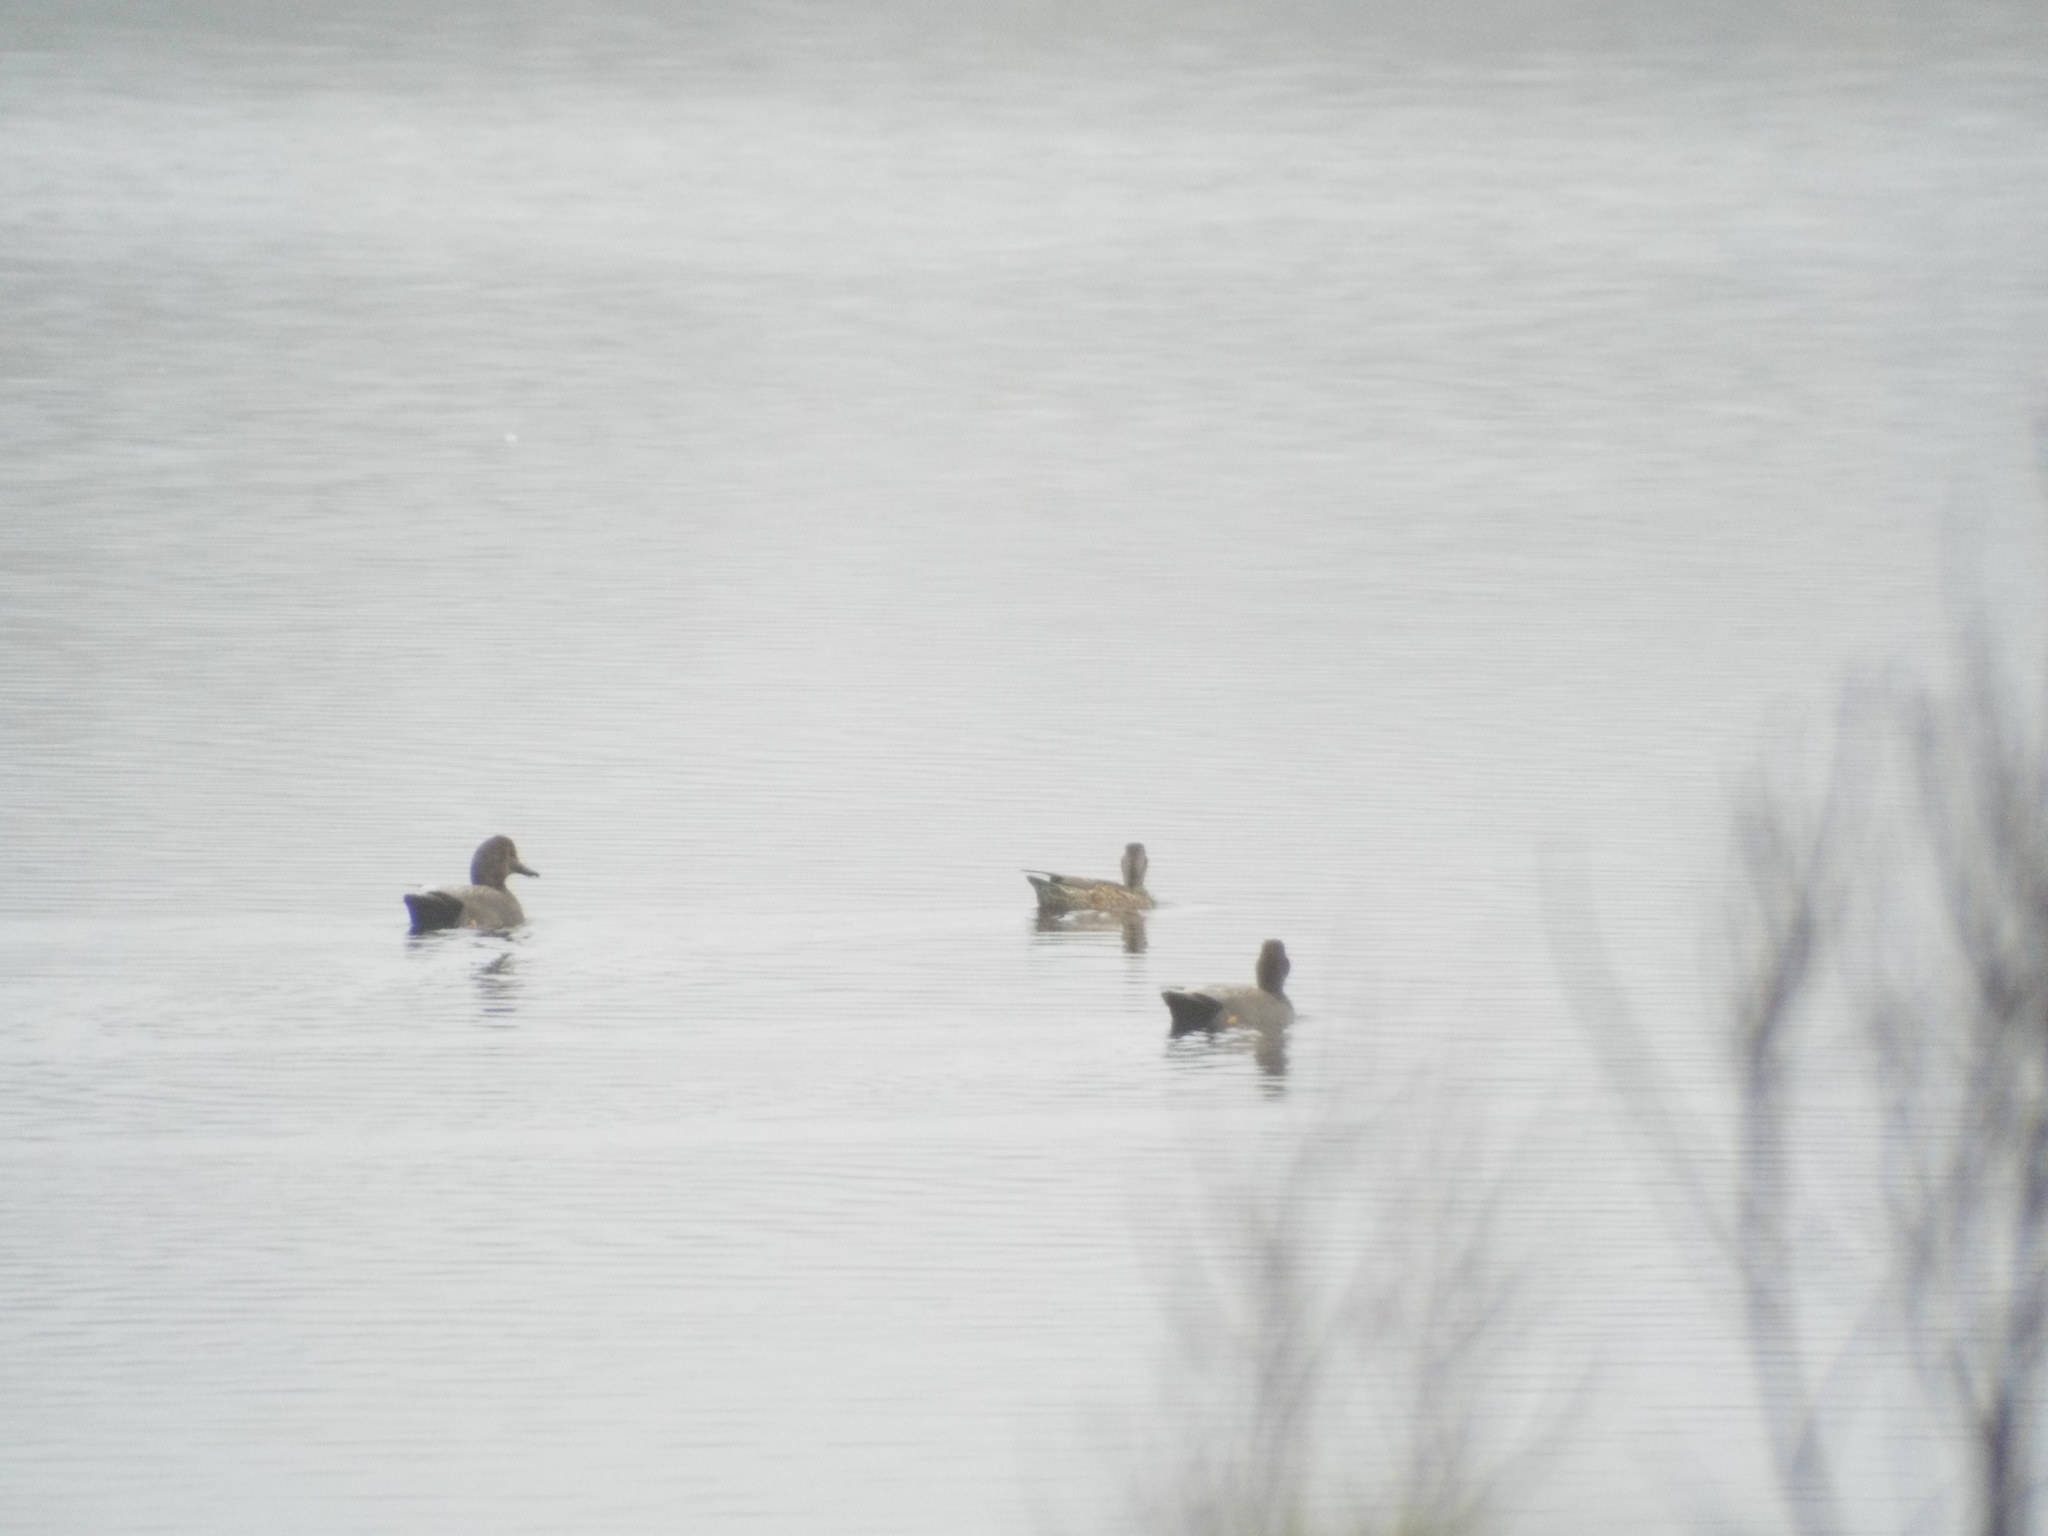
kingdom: Animalia
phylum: Chordata
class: Aves
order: Anseriformes
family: Anatidae
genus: Mareca
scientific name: Mareca strepera
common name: Gadwall
